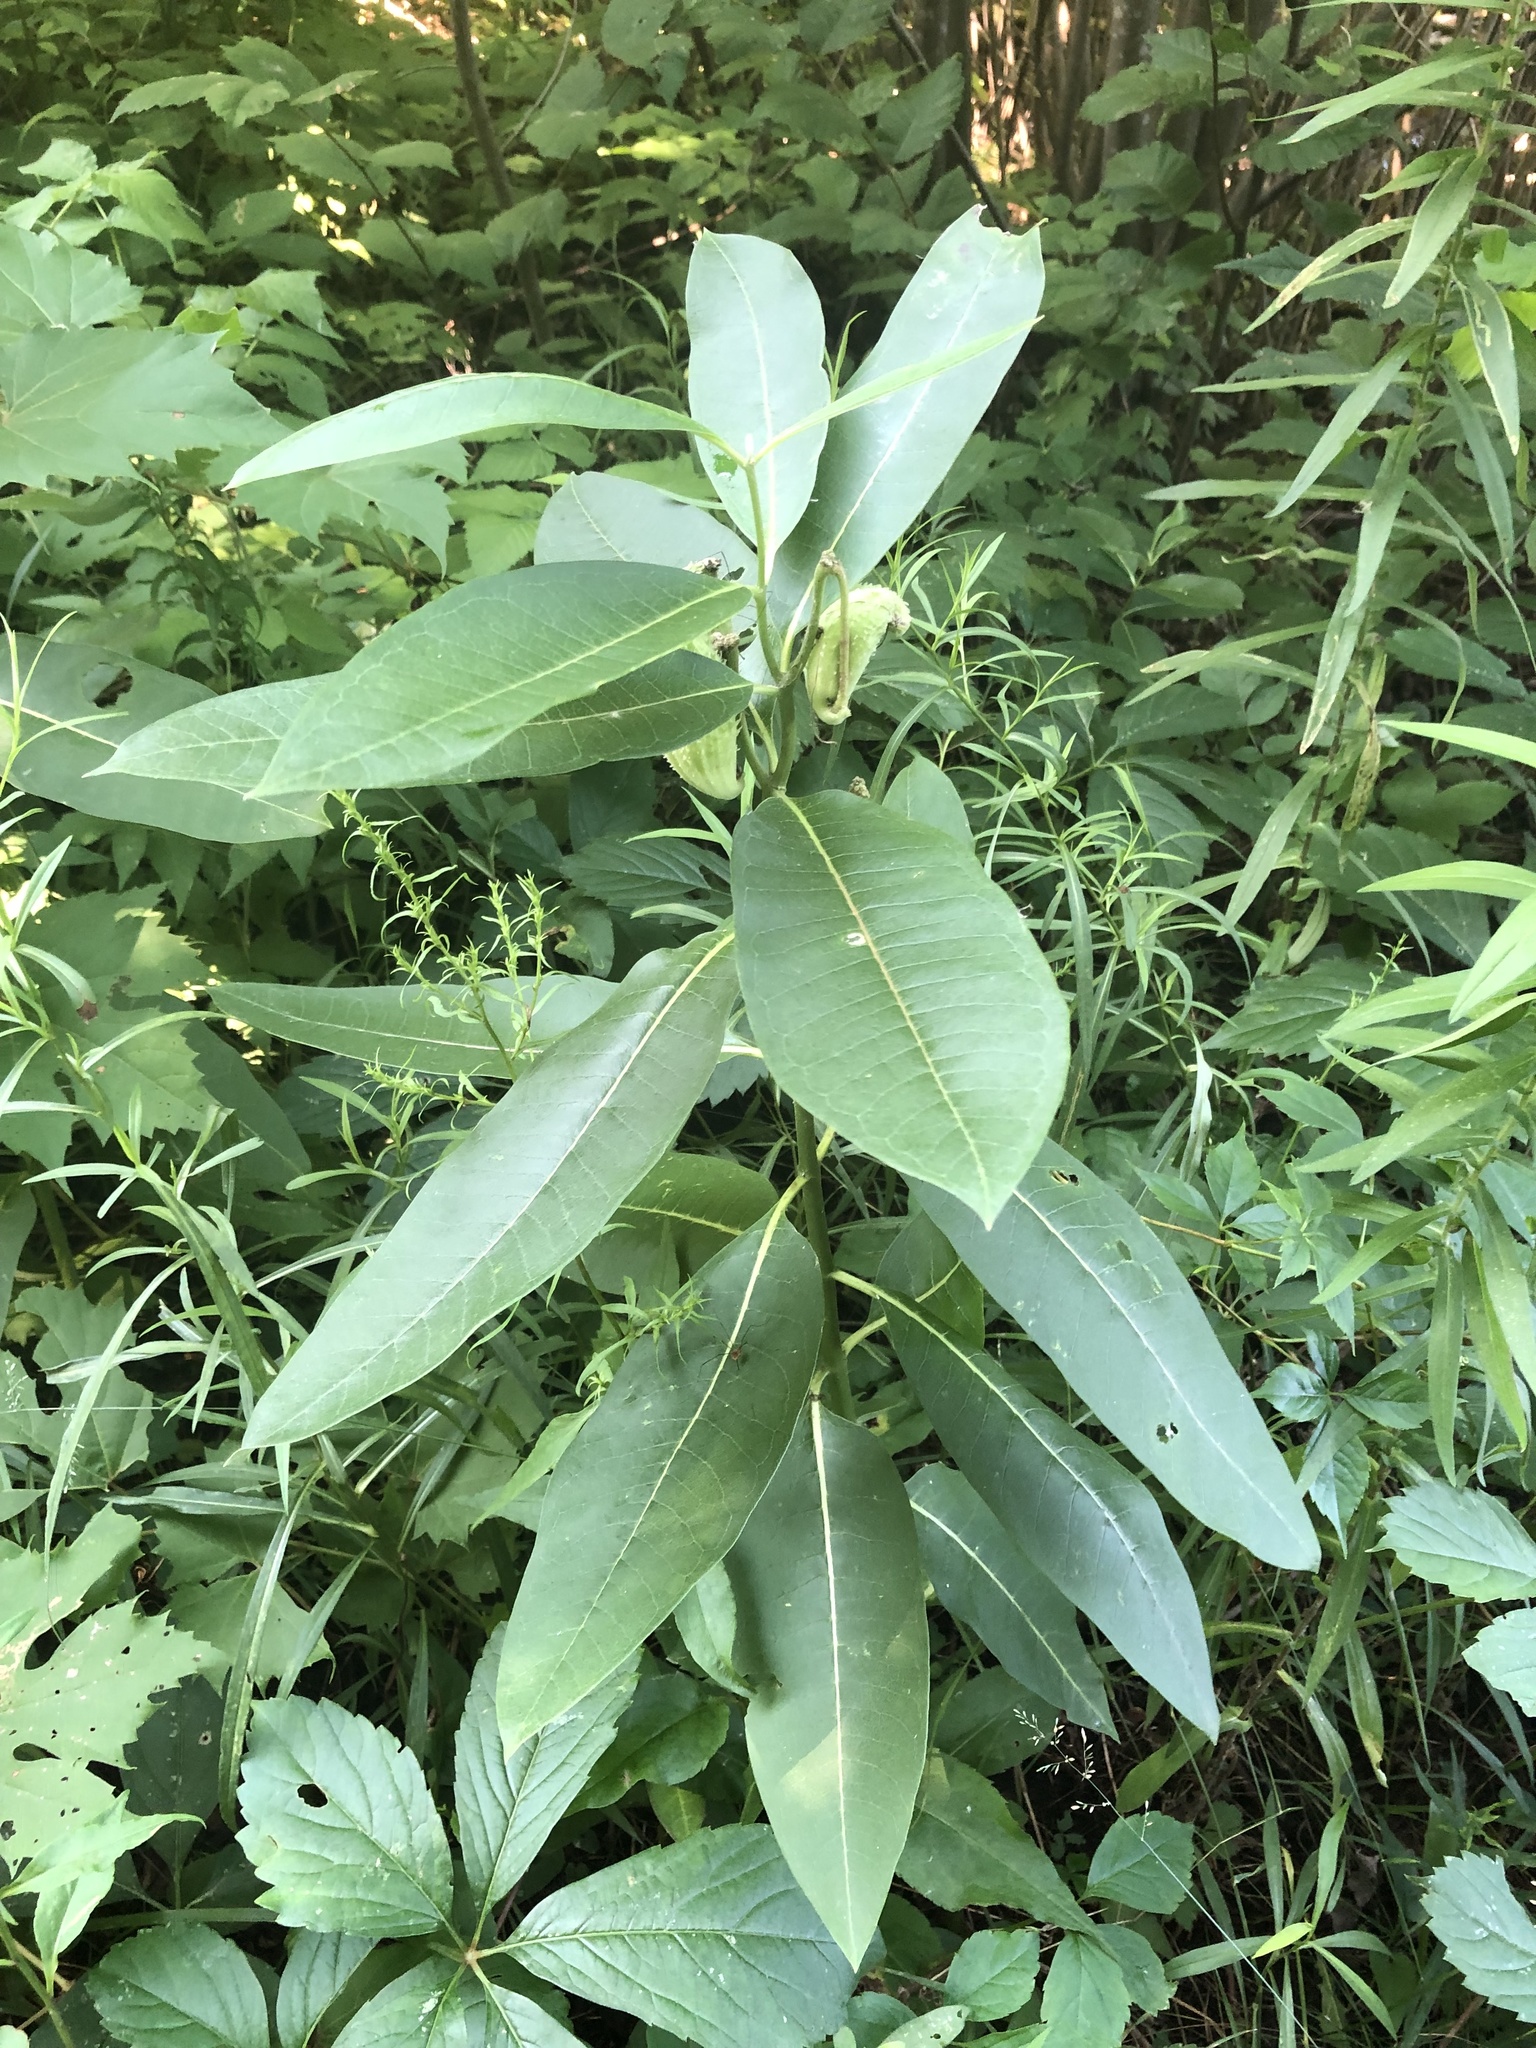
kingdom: Plantae
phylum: Tracheophyta
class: Magnoliopsida
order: Gentianales
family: Apocynaceae
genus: Asclepias
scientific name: Asclepias syriaca
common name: Common milkweed
